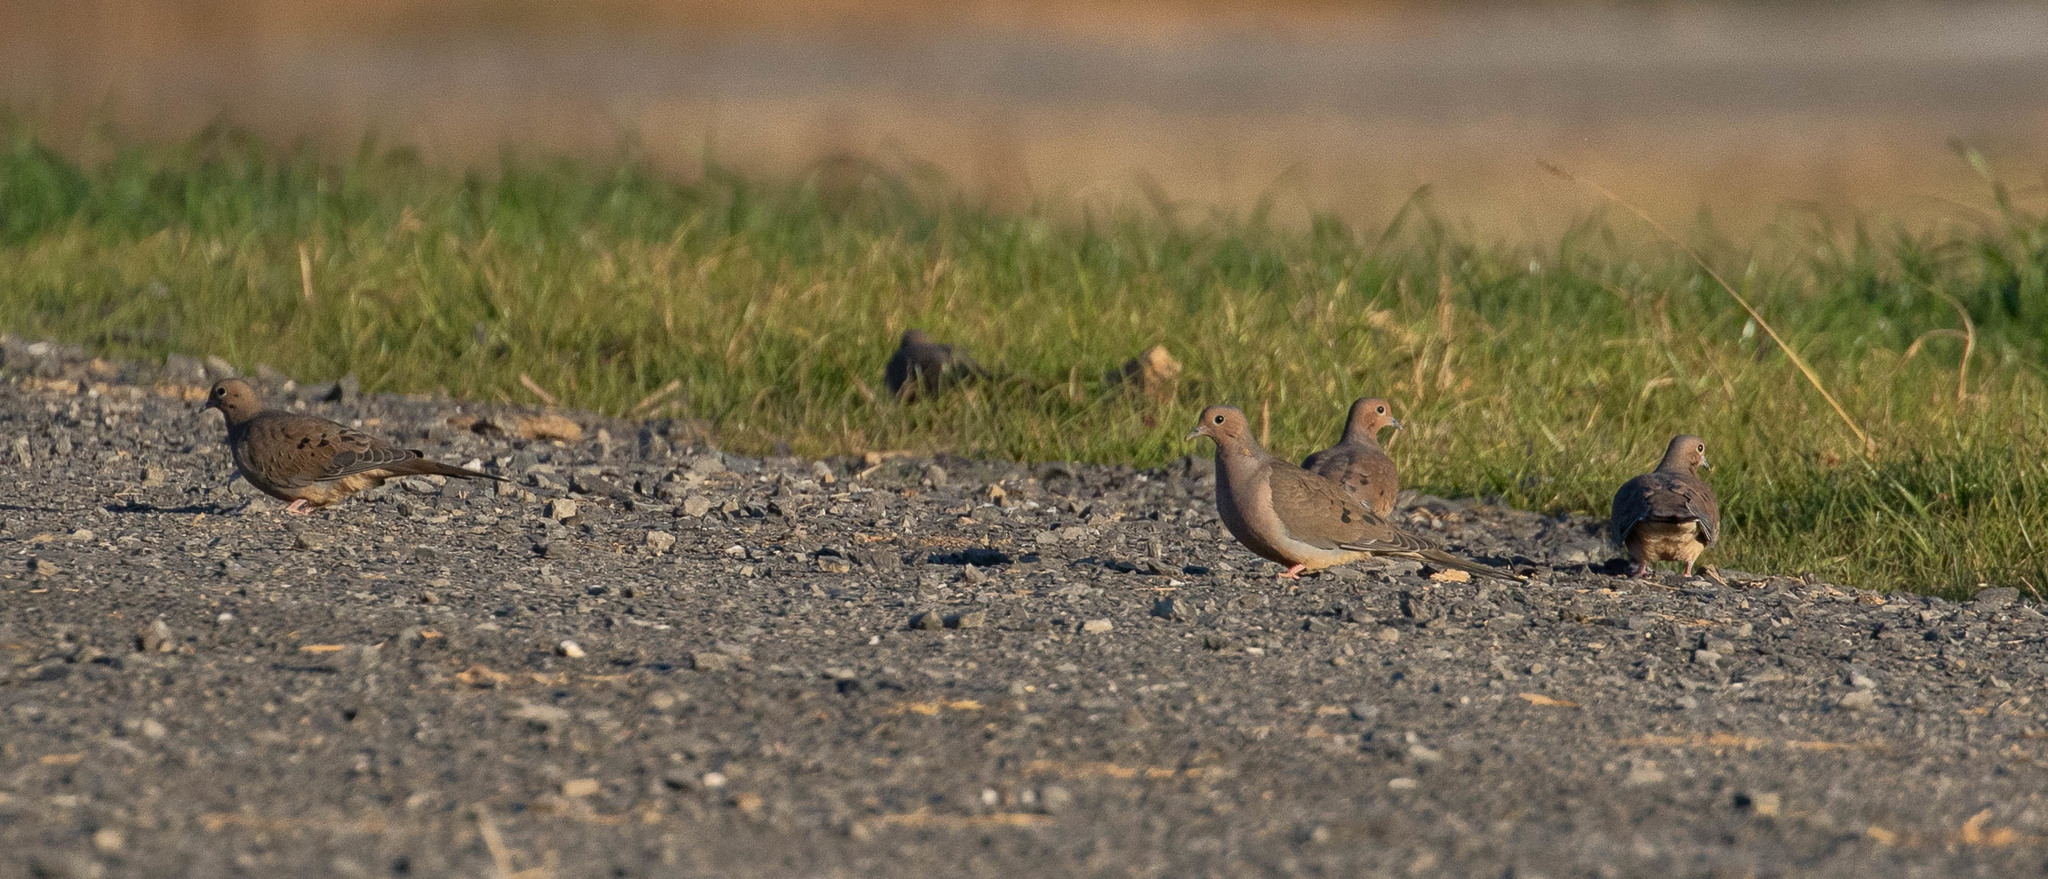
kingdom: Animalia
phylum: Chordata
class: Aves
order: Columbiformes
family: Columbidae
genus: Zenaida
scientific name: Zenaida macroura
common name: Mourning dove
